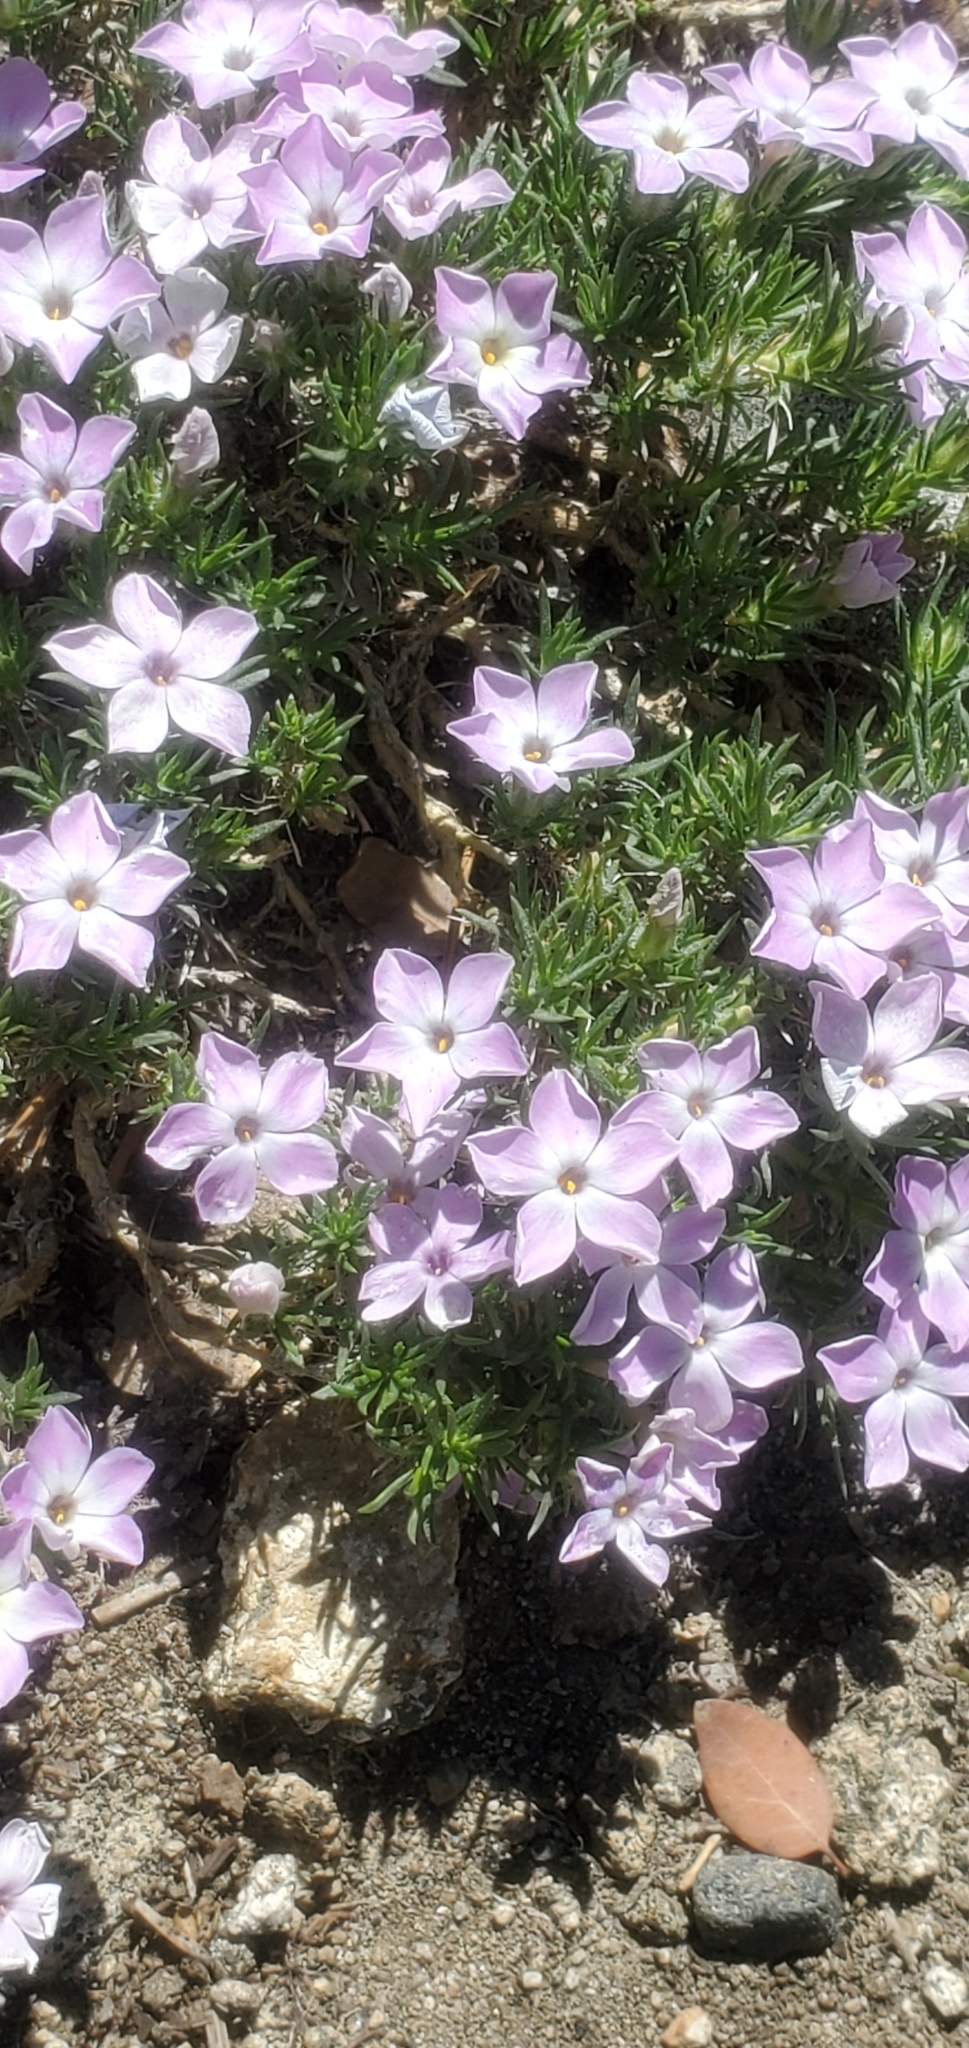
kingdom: Plantae
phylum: Tracheophyta
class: Magnoliopsida
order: Ericales
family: Polemoniaceae
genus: Phlox
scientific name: Phlox diffusa
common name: Mat phlox
